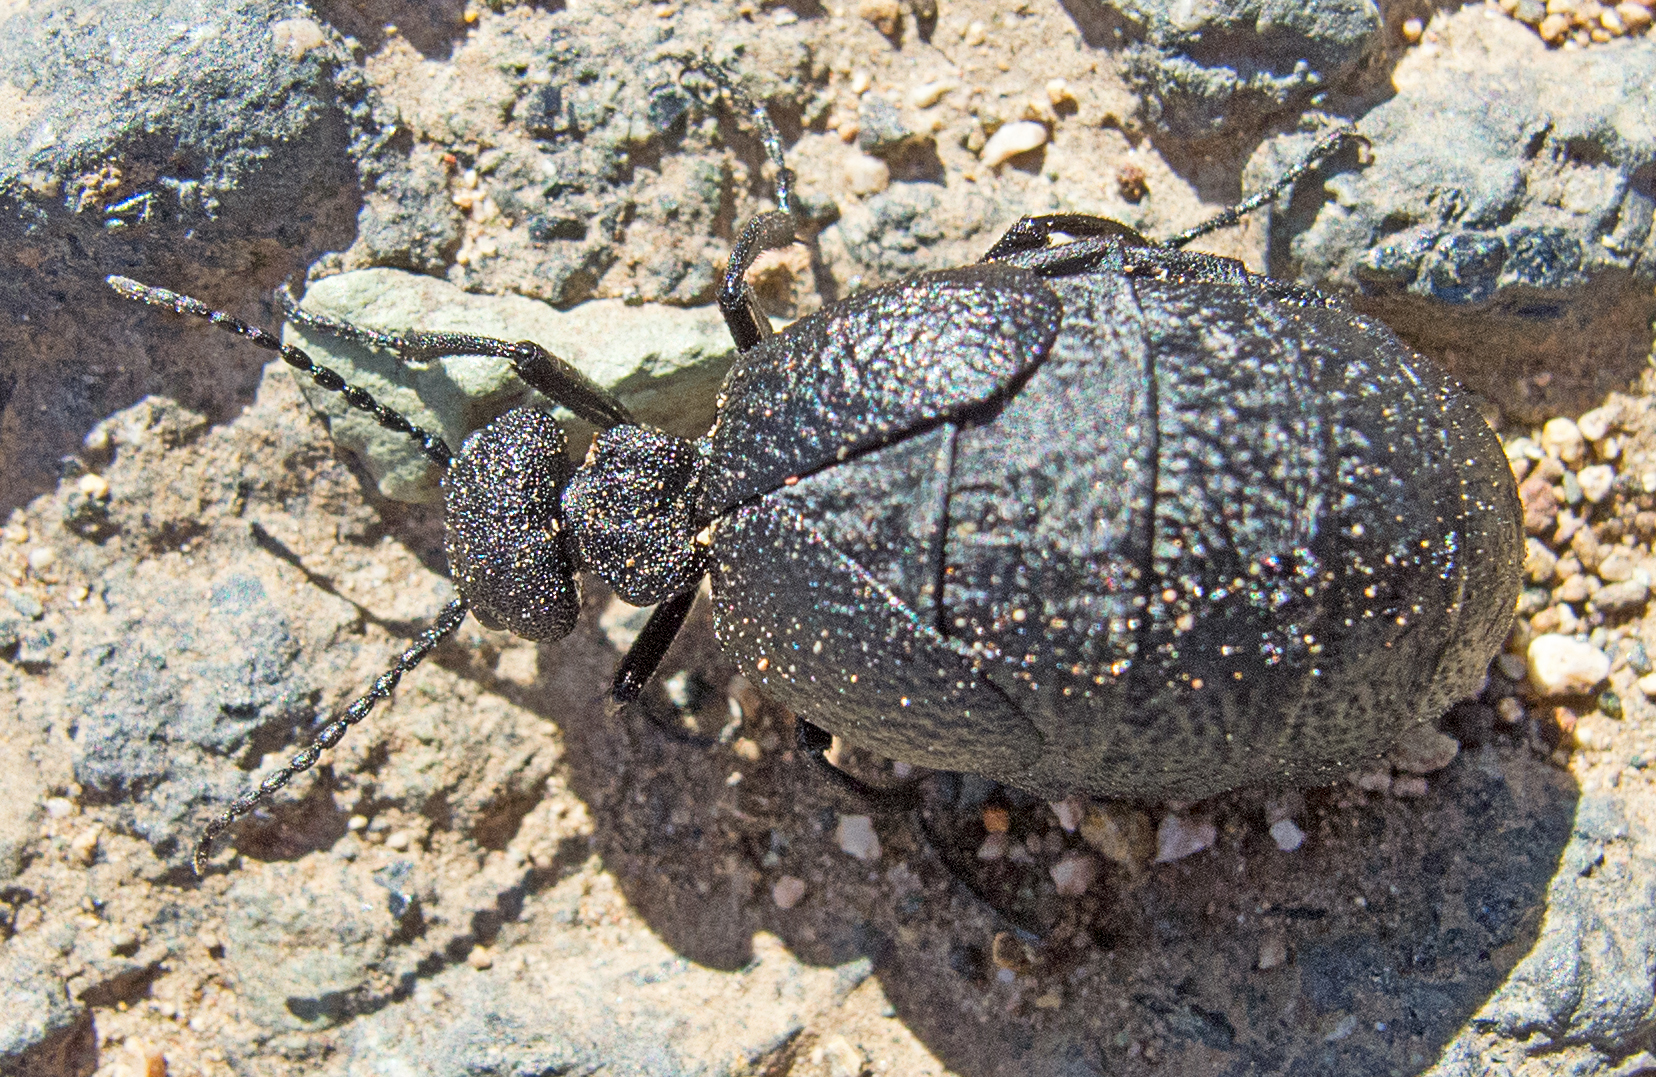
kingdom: Animalia
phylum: Arthropoda
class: Insecta
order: Coleoptera
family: Meloidae
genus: Meloe
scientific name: Meloe rugosus
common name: Rugged oil-beetle
